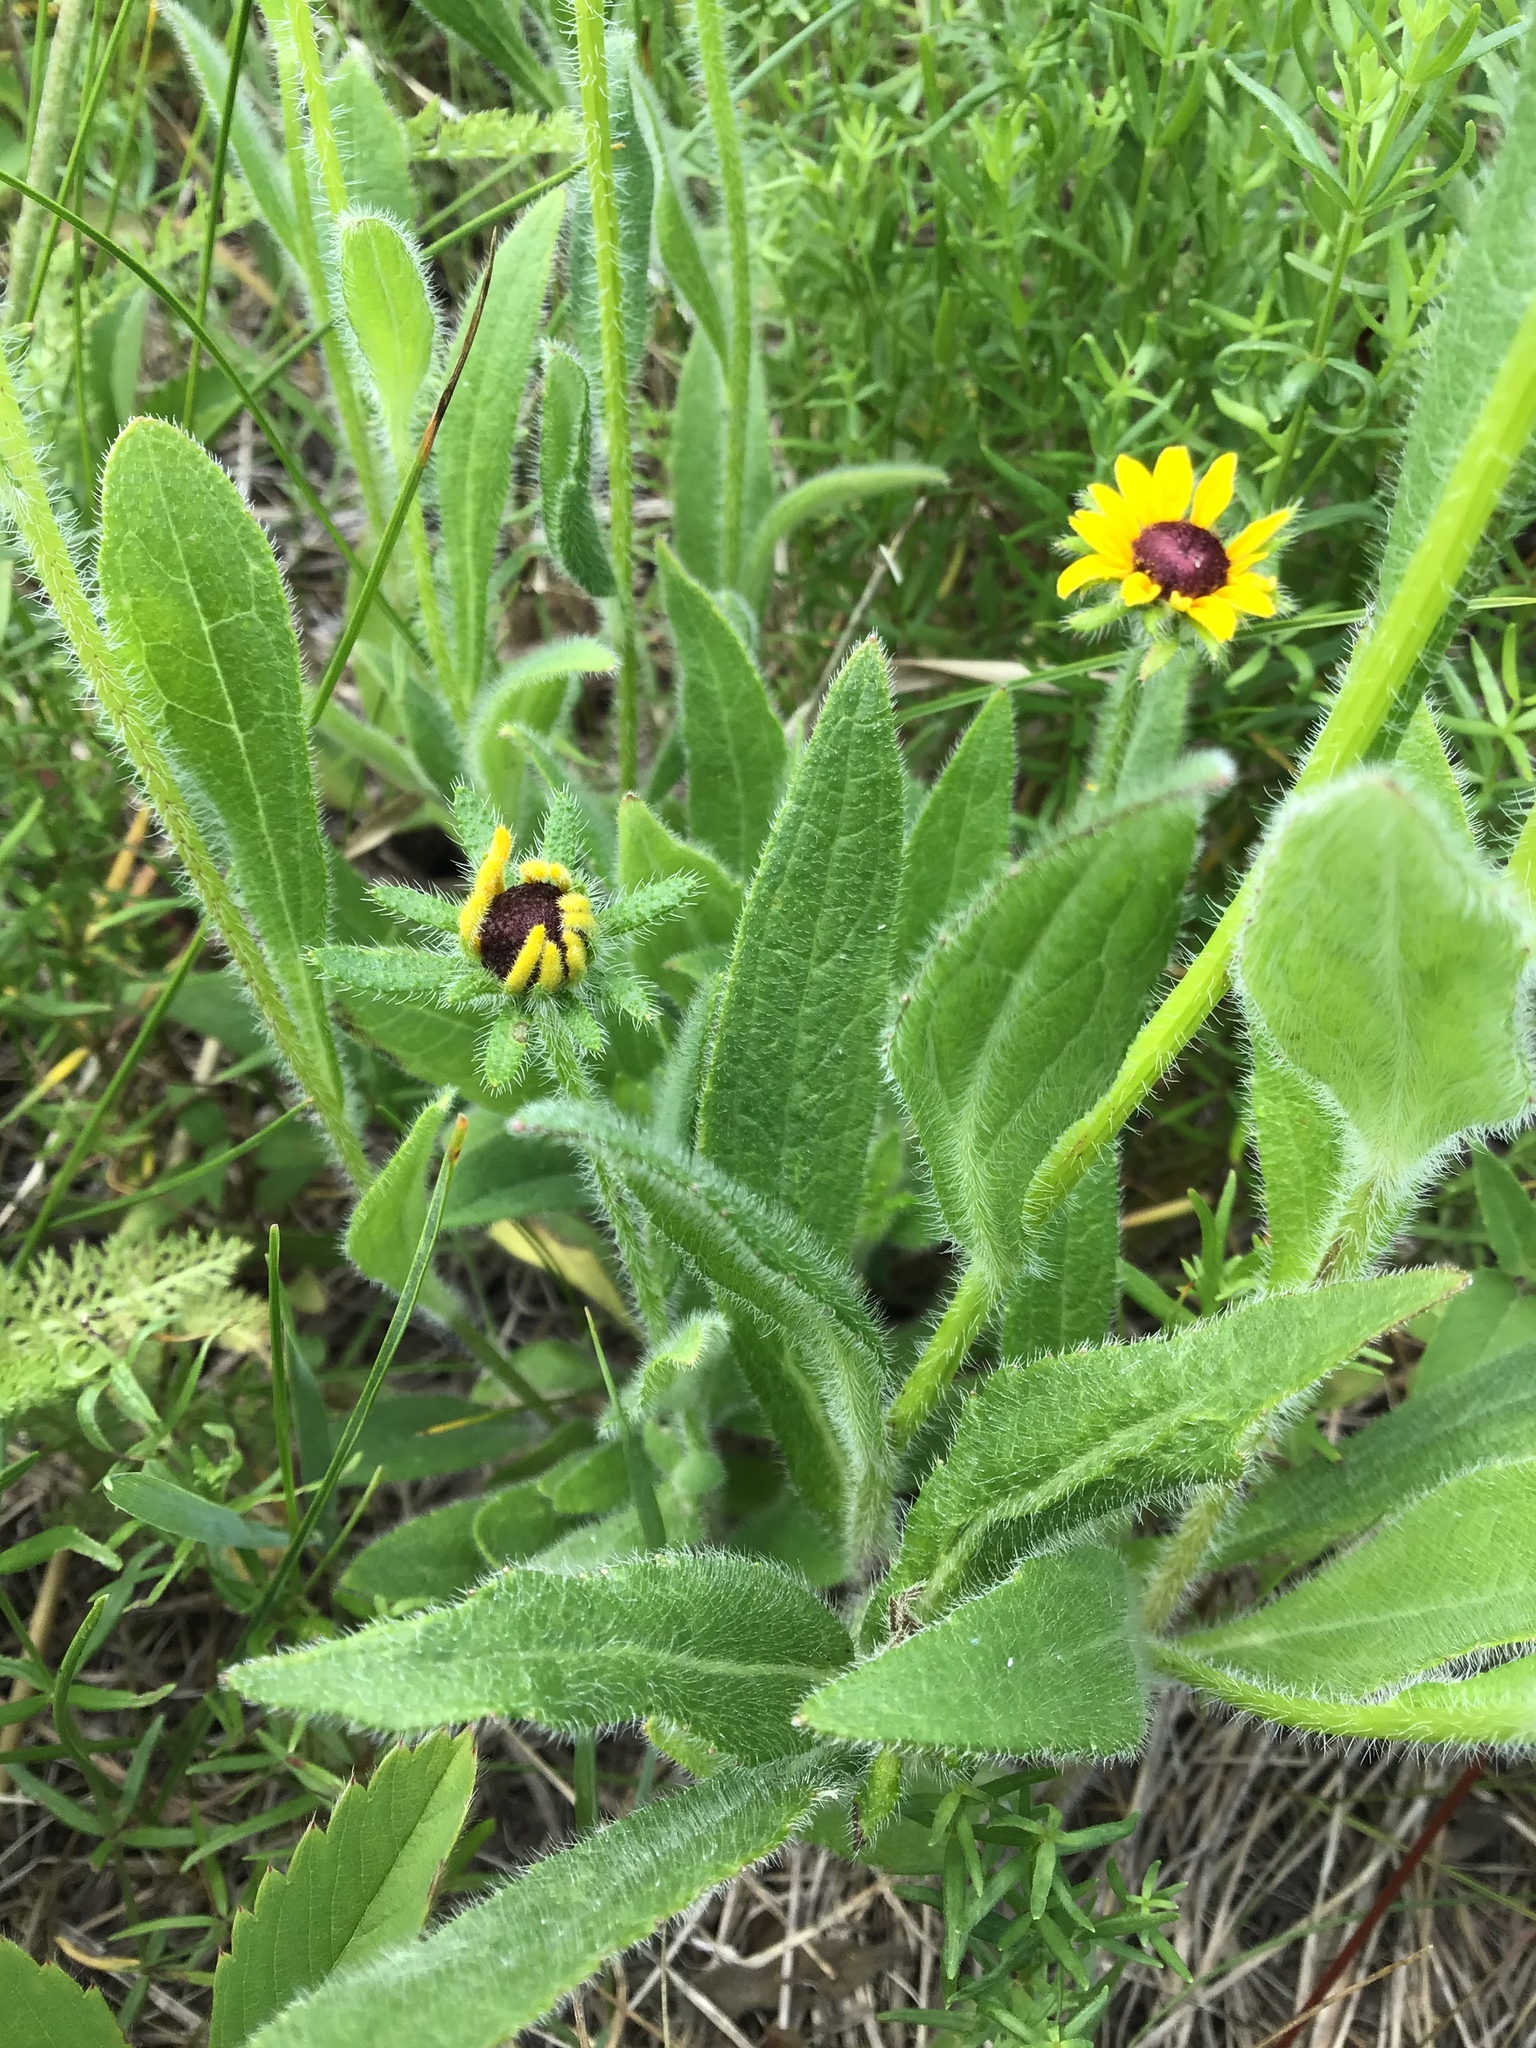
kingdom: Plantae
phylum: Tracheophyta
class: Magnoliopsida
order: Asterales
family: Asteraceae
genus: Rudbeckia
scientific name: Rudbeckia hirta
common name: Black-eyed-susan
